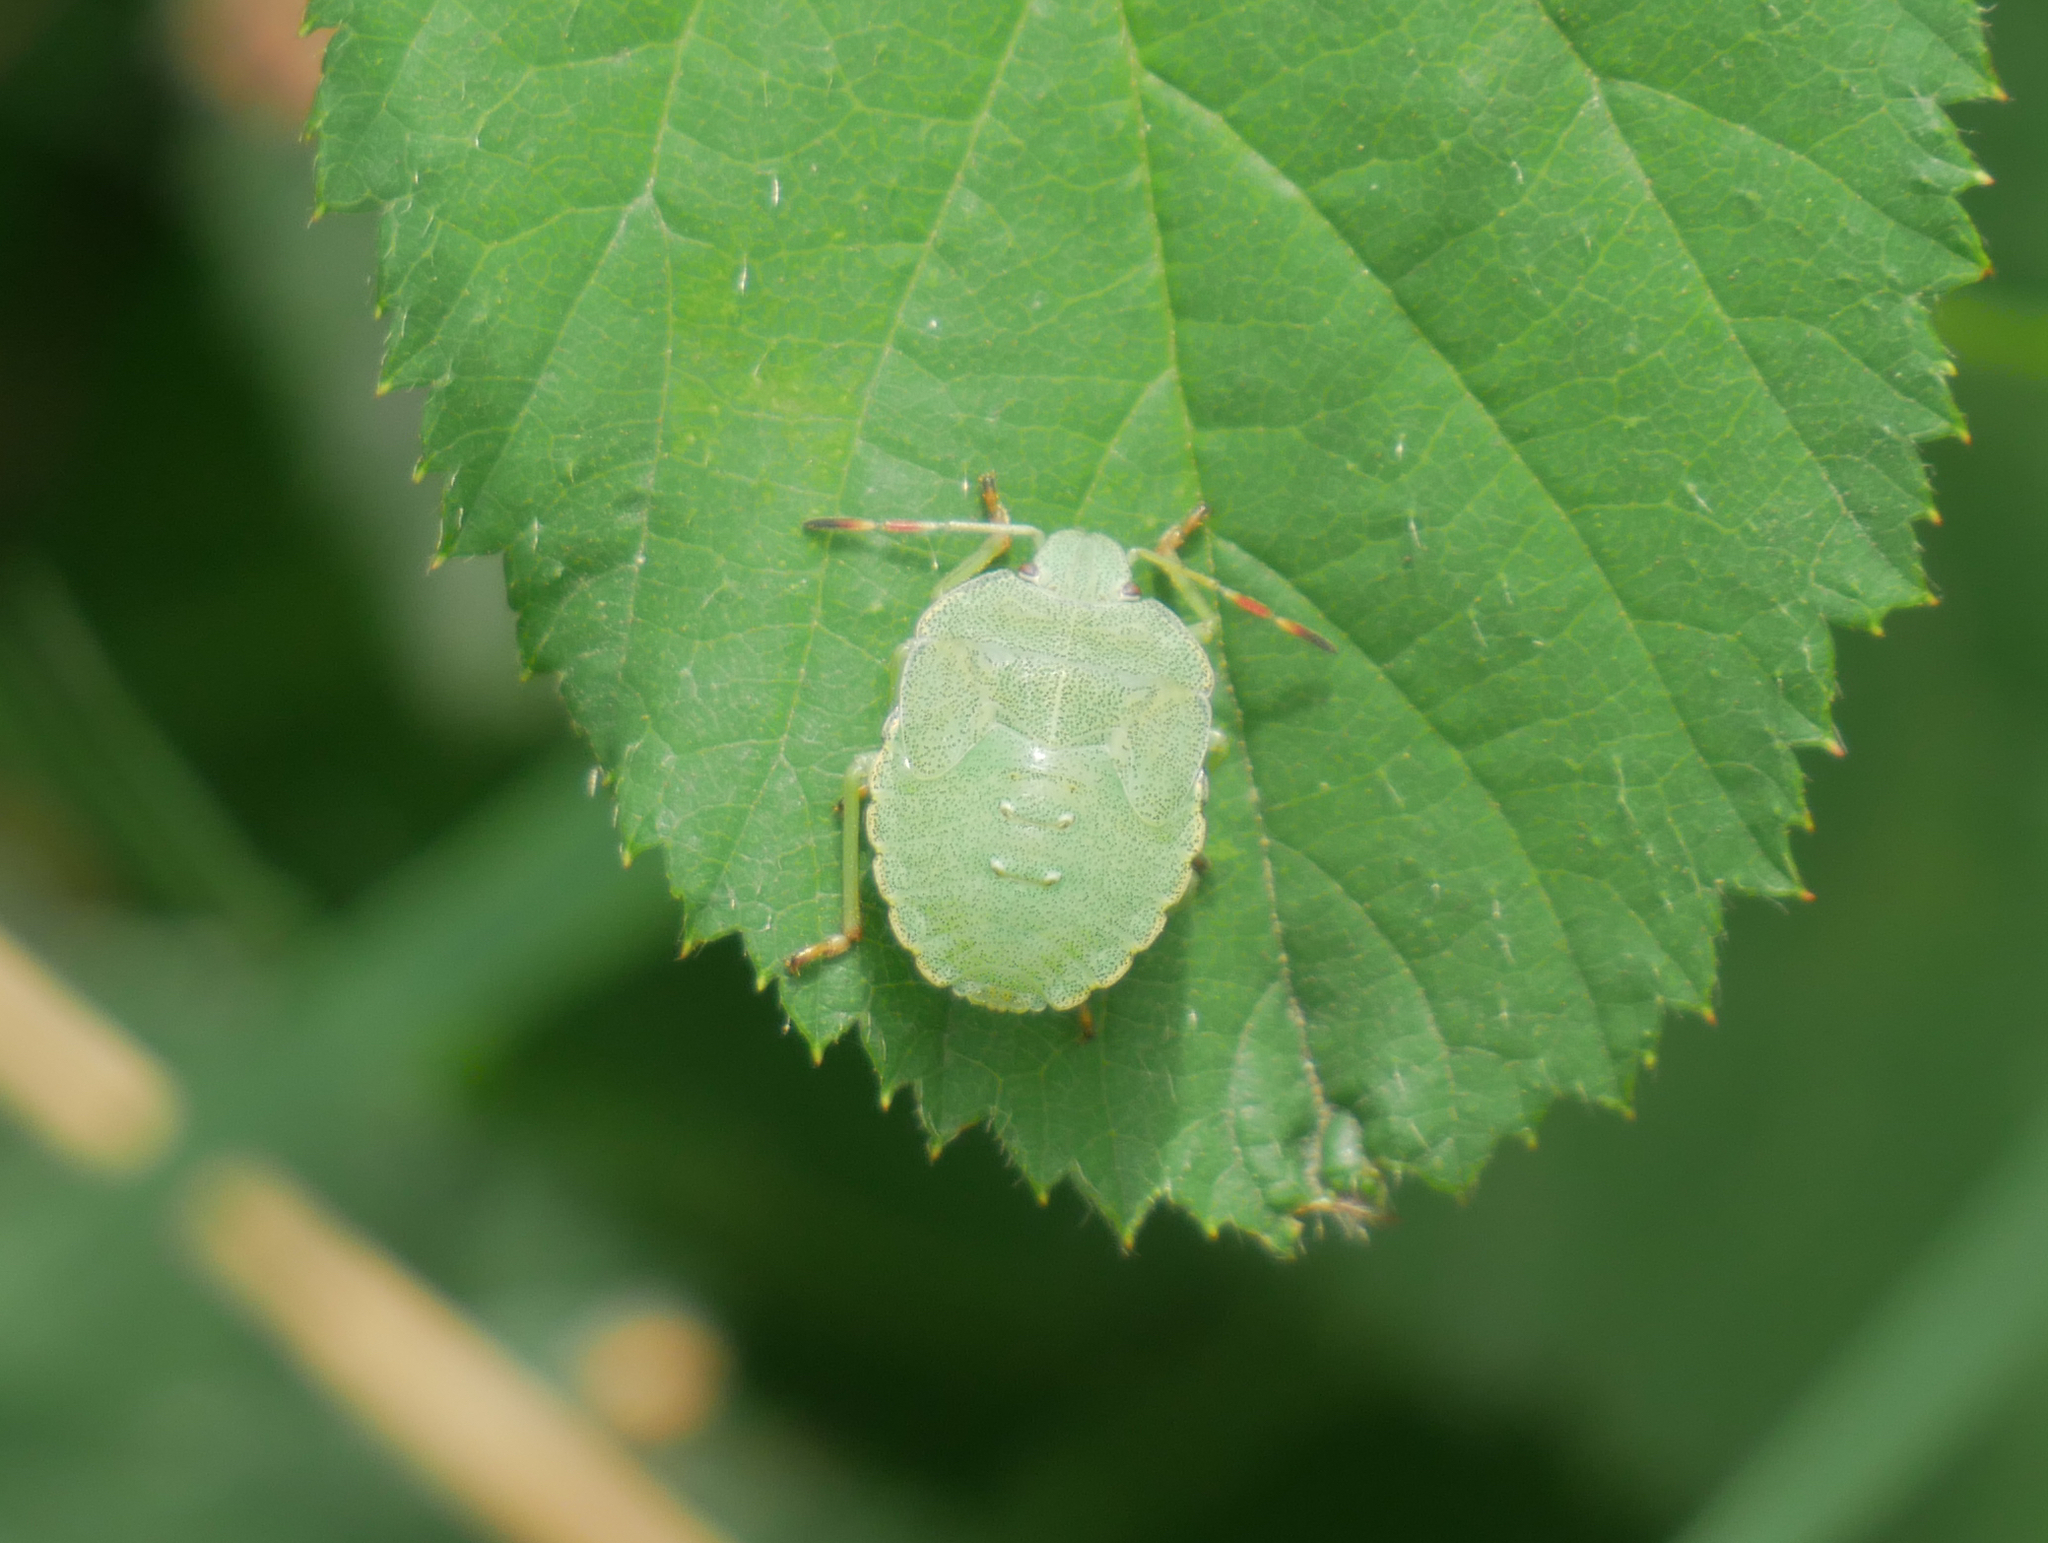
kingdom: Animalia
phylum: Arthropoda
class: Insecta
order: Hemiptera
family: Pentatomidae
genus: Palomena
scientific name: Palomena prasina
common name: Green shieldbug
